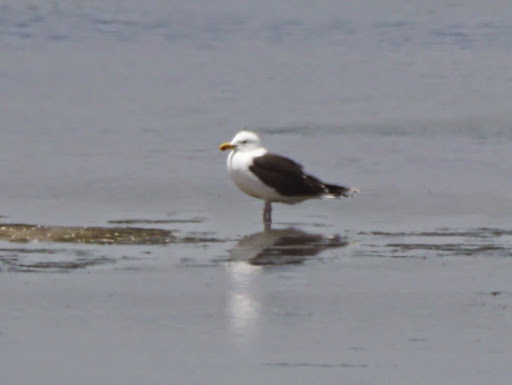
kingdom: Animalia
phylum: Chordata
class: Aves
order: Charadriiformes
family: Laridae
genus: Larus
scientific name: Larus marinus
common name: Great black-backed gull
